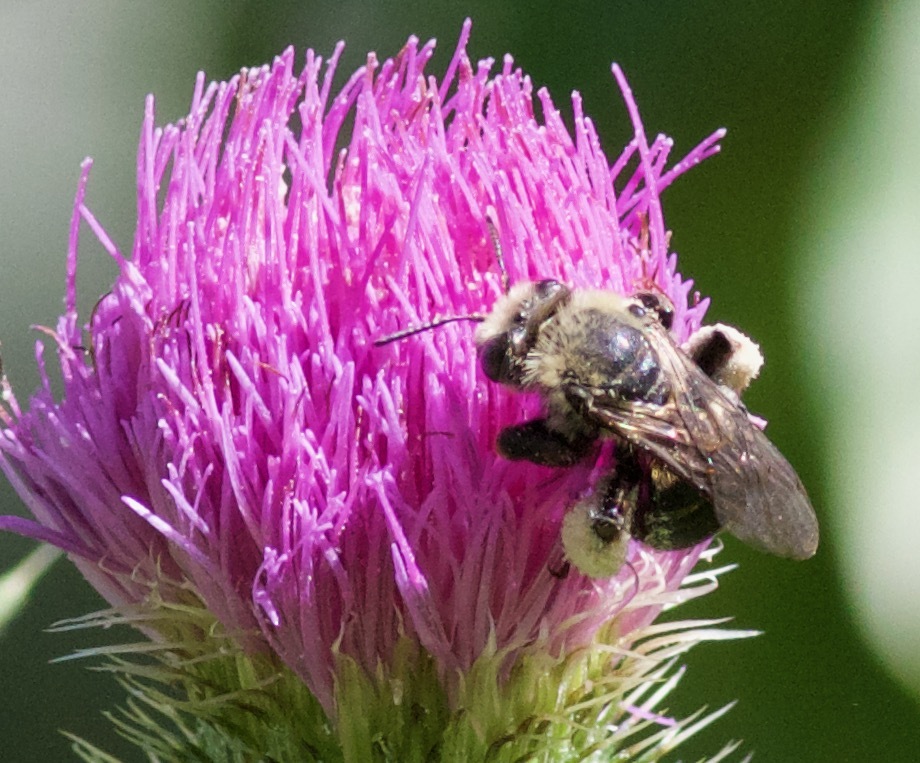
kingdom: Animalia
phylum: Arthropoda
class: Insecta
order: Hymenoptera
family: Apidae
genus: Melissodes
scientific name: Melissodes desponsus
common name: Thistle long-horned bee
